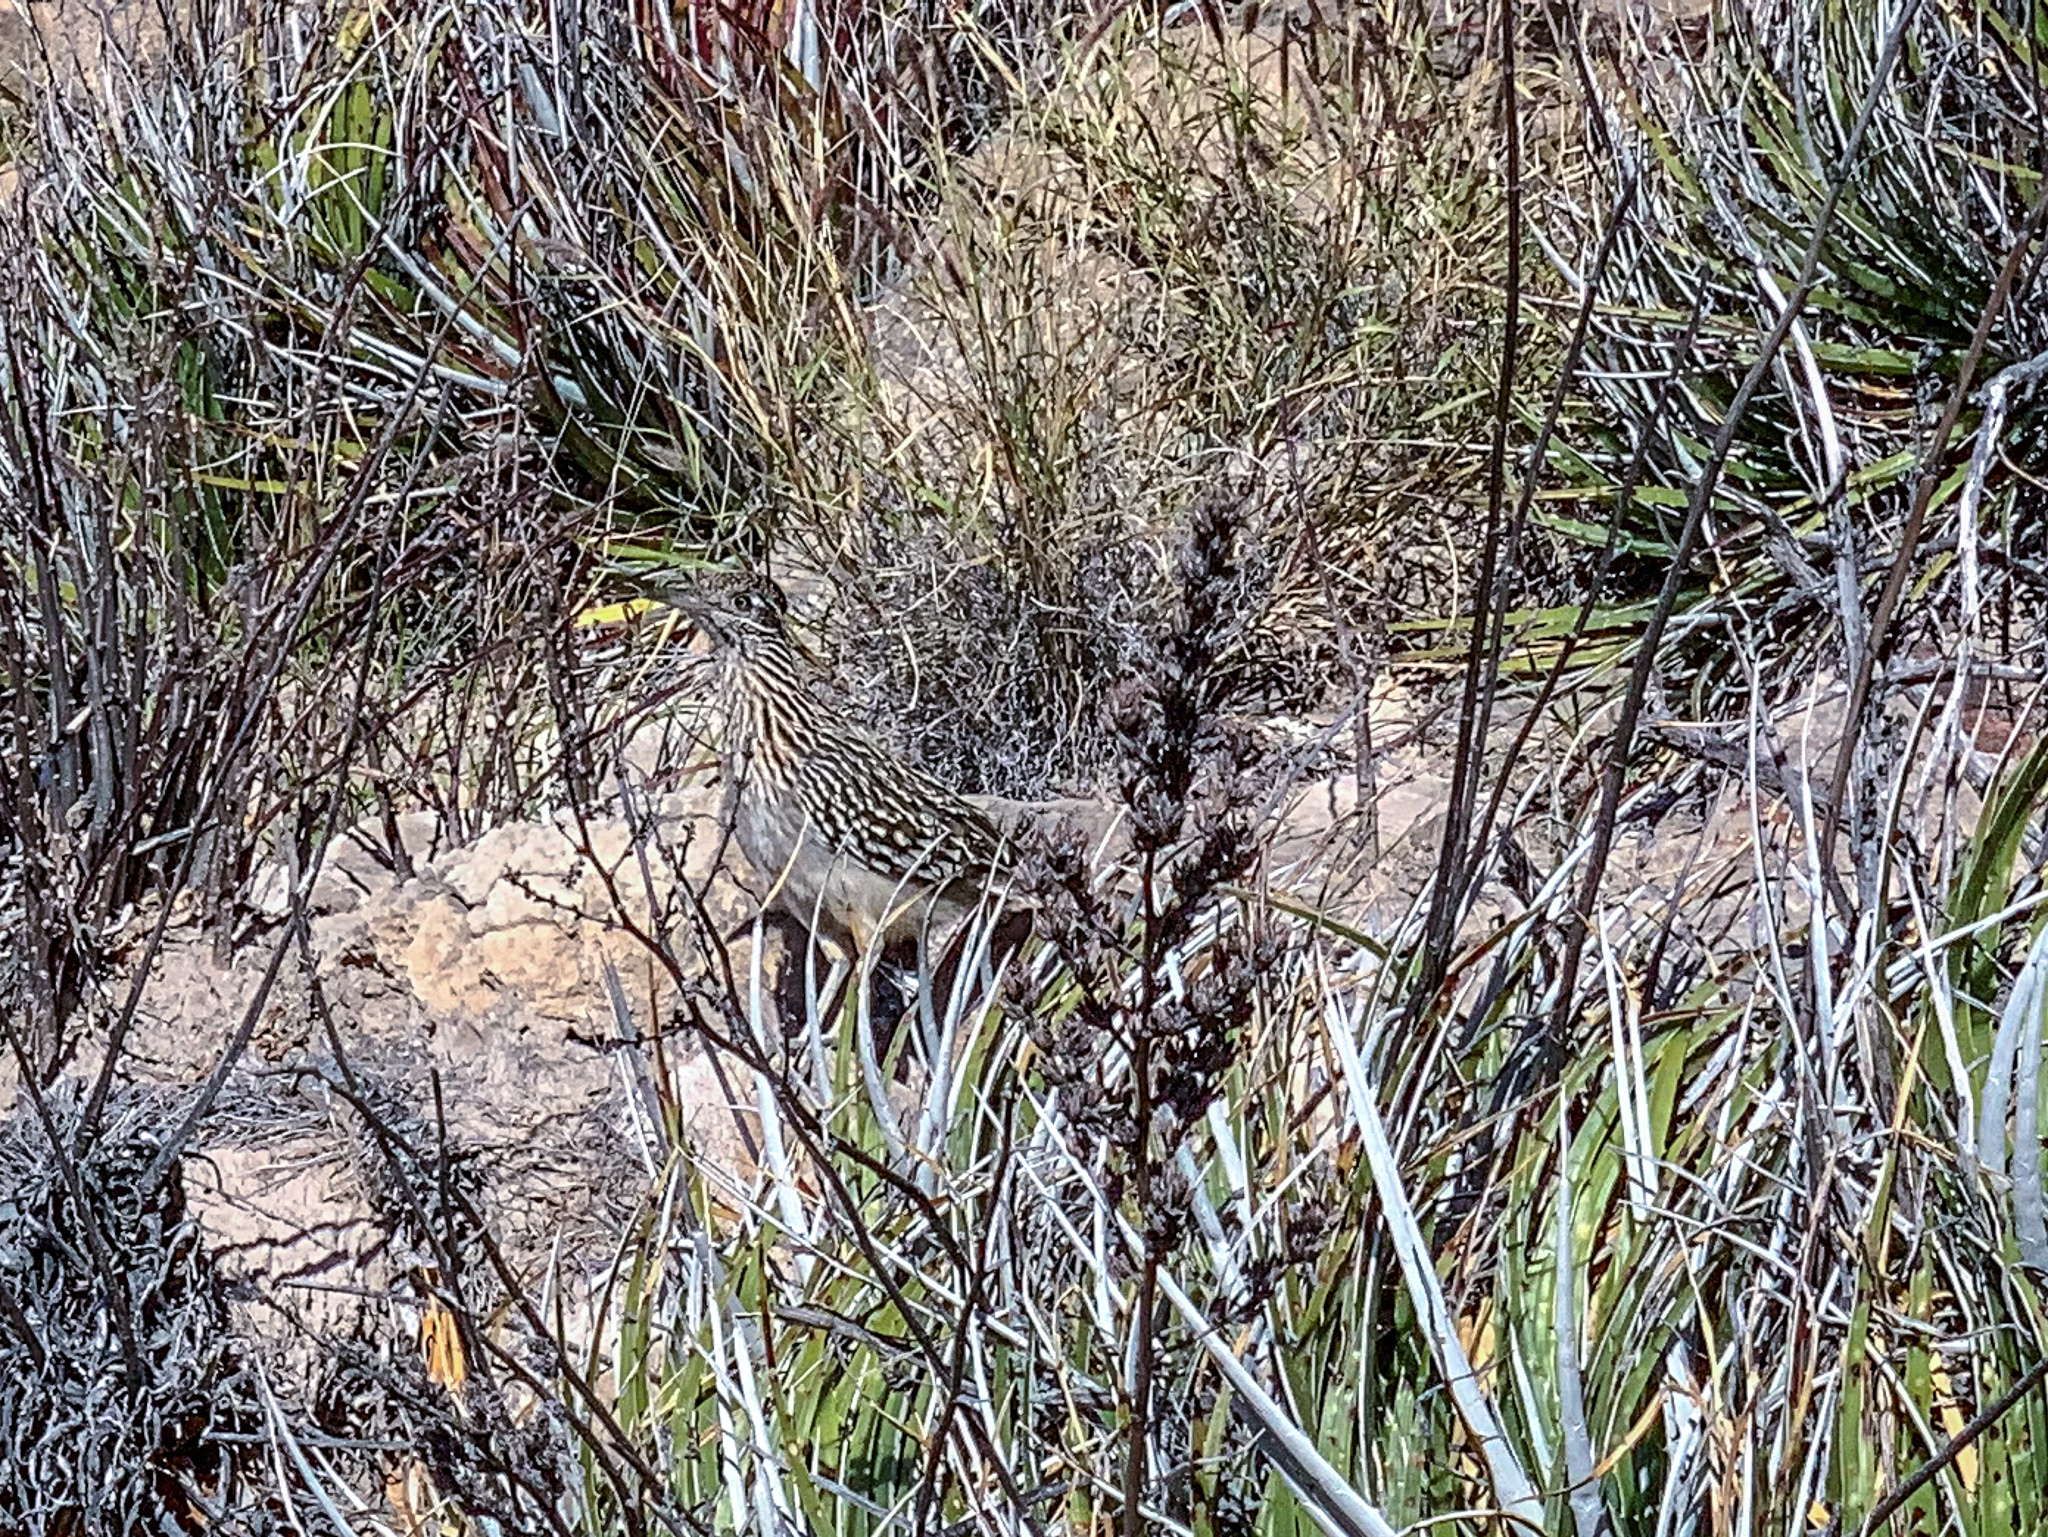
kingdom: Animalia
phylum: Chordata
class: Aves
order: Cuculiformes
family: Cuculidae
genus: Geococcyx
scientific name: Geococcyx californianus
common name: Greater roadrunner
